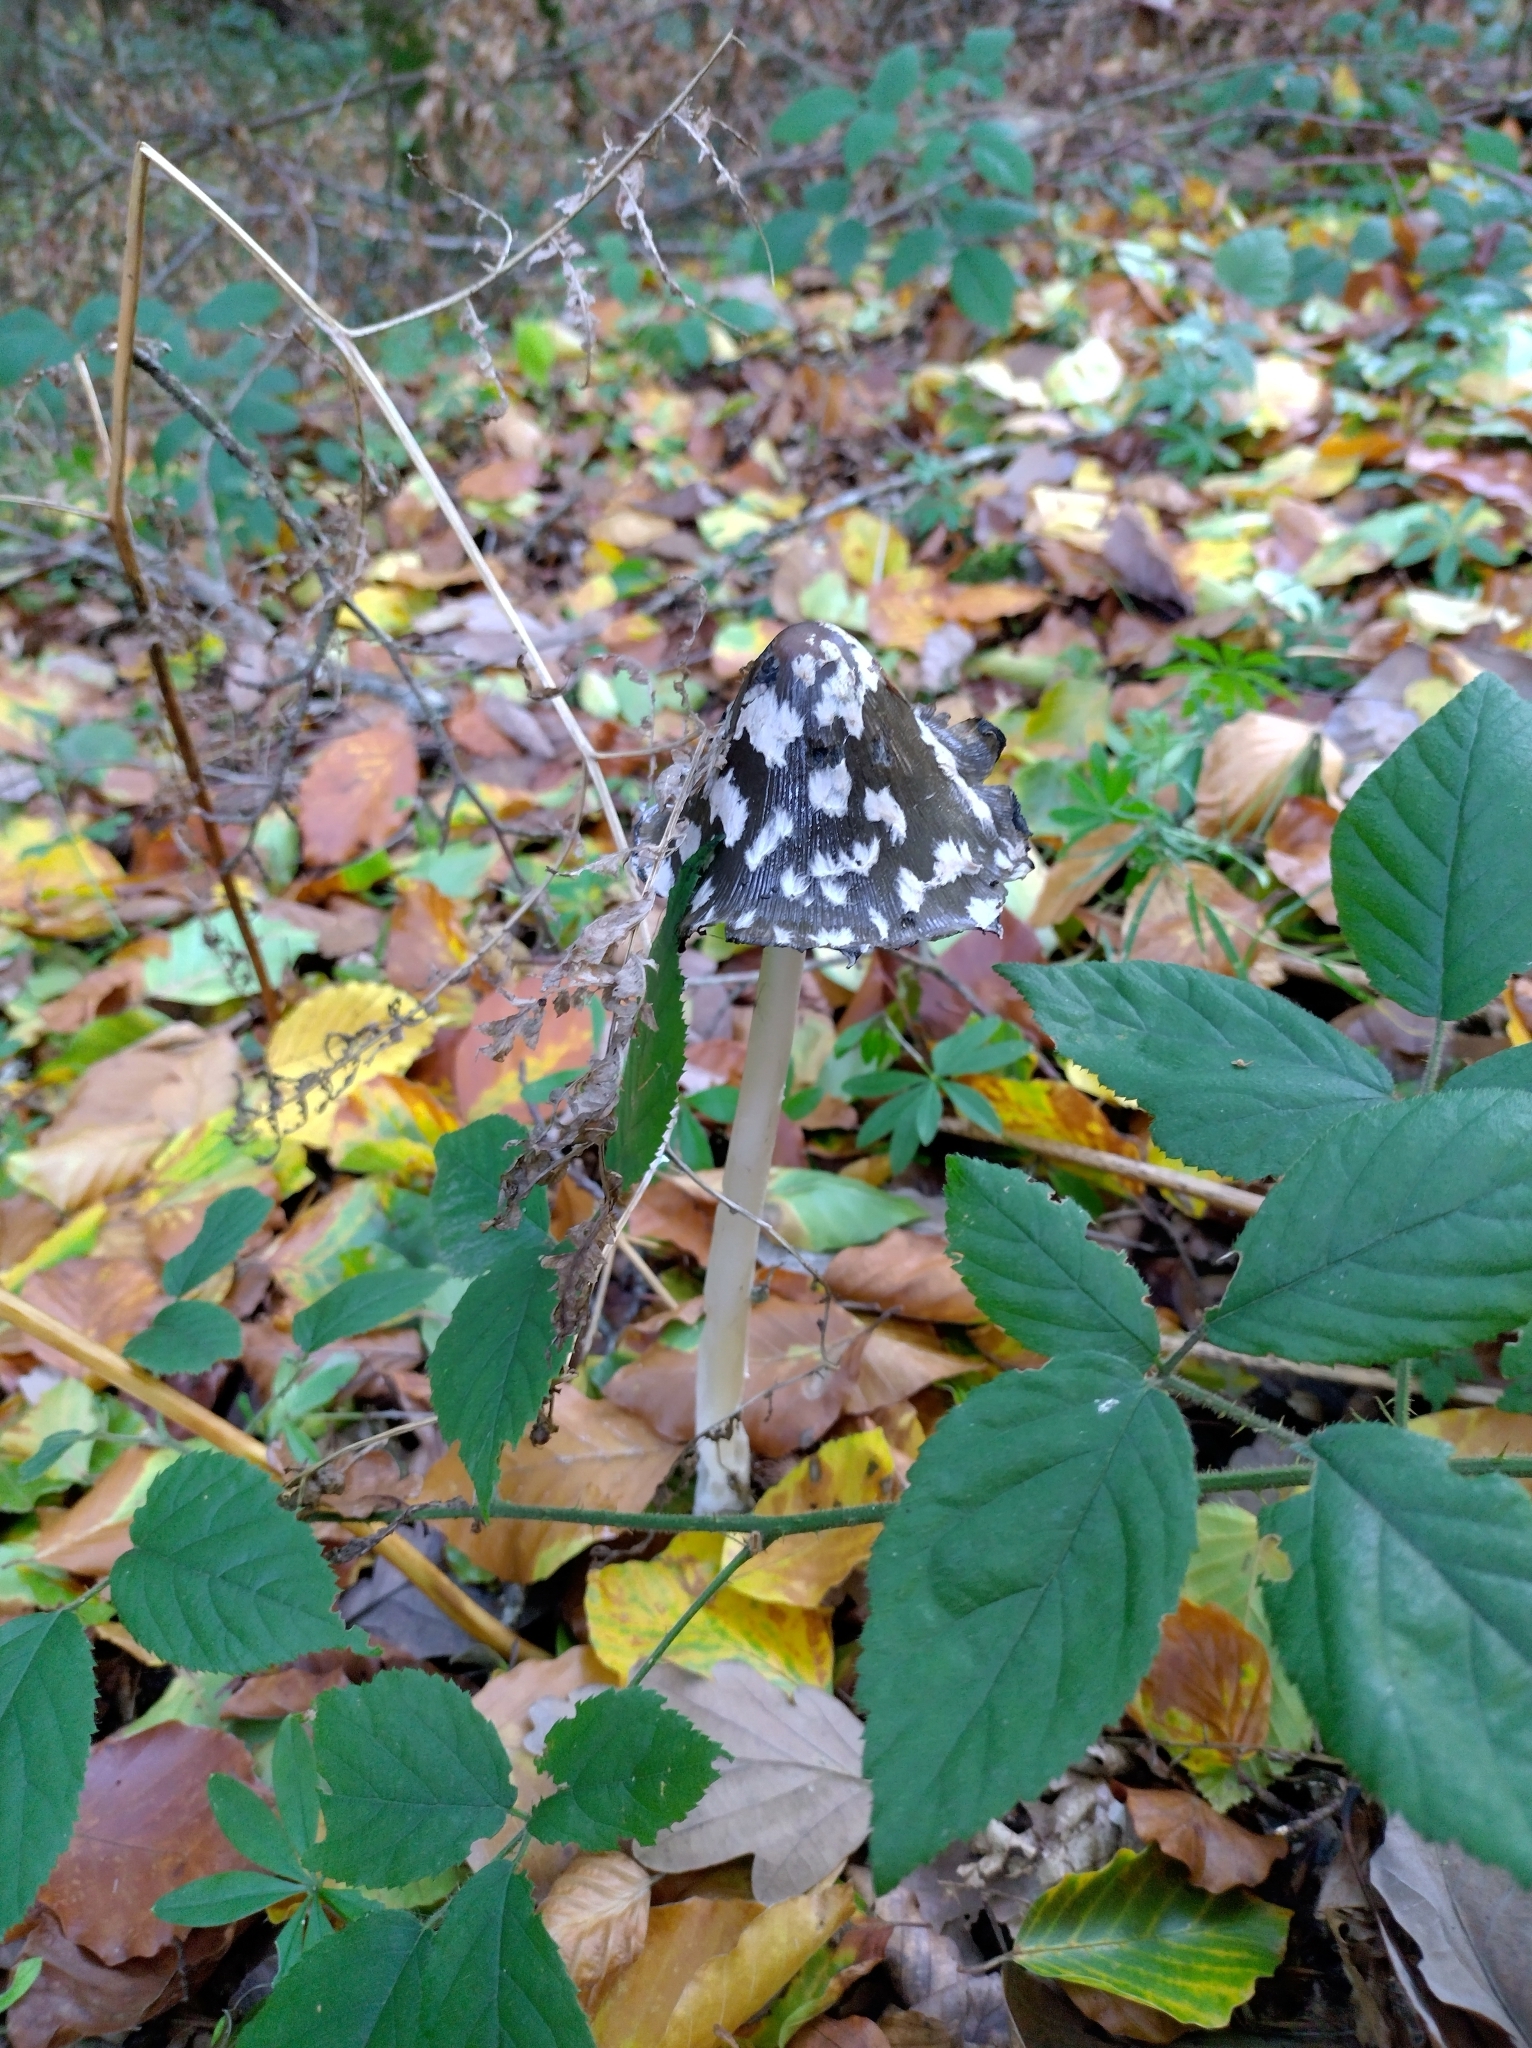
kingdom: Fungi
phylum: Basidiomycota
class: Agaricomycetes
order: Agaricales
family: Psathyrellaceae
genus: Coprinopsis
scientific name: Coprinopsis picacea
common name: Magpie inkcap
